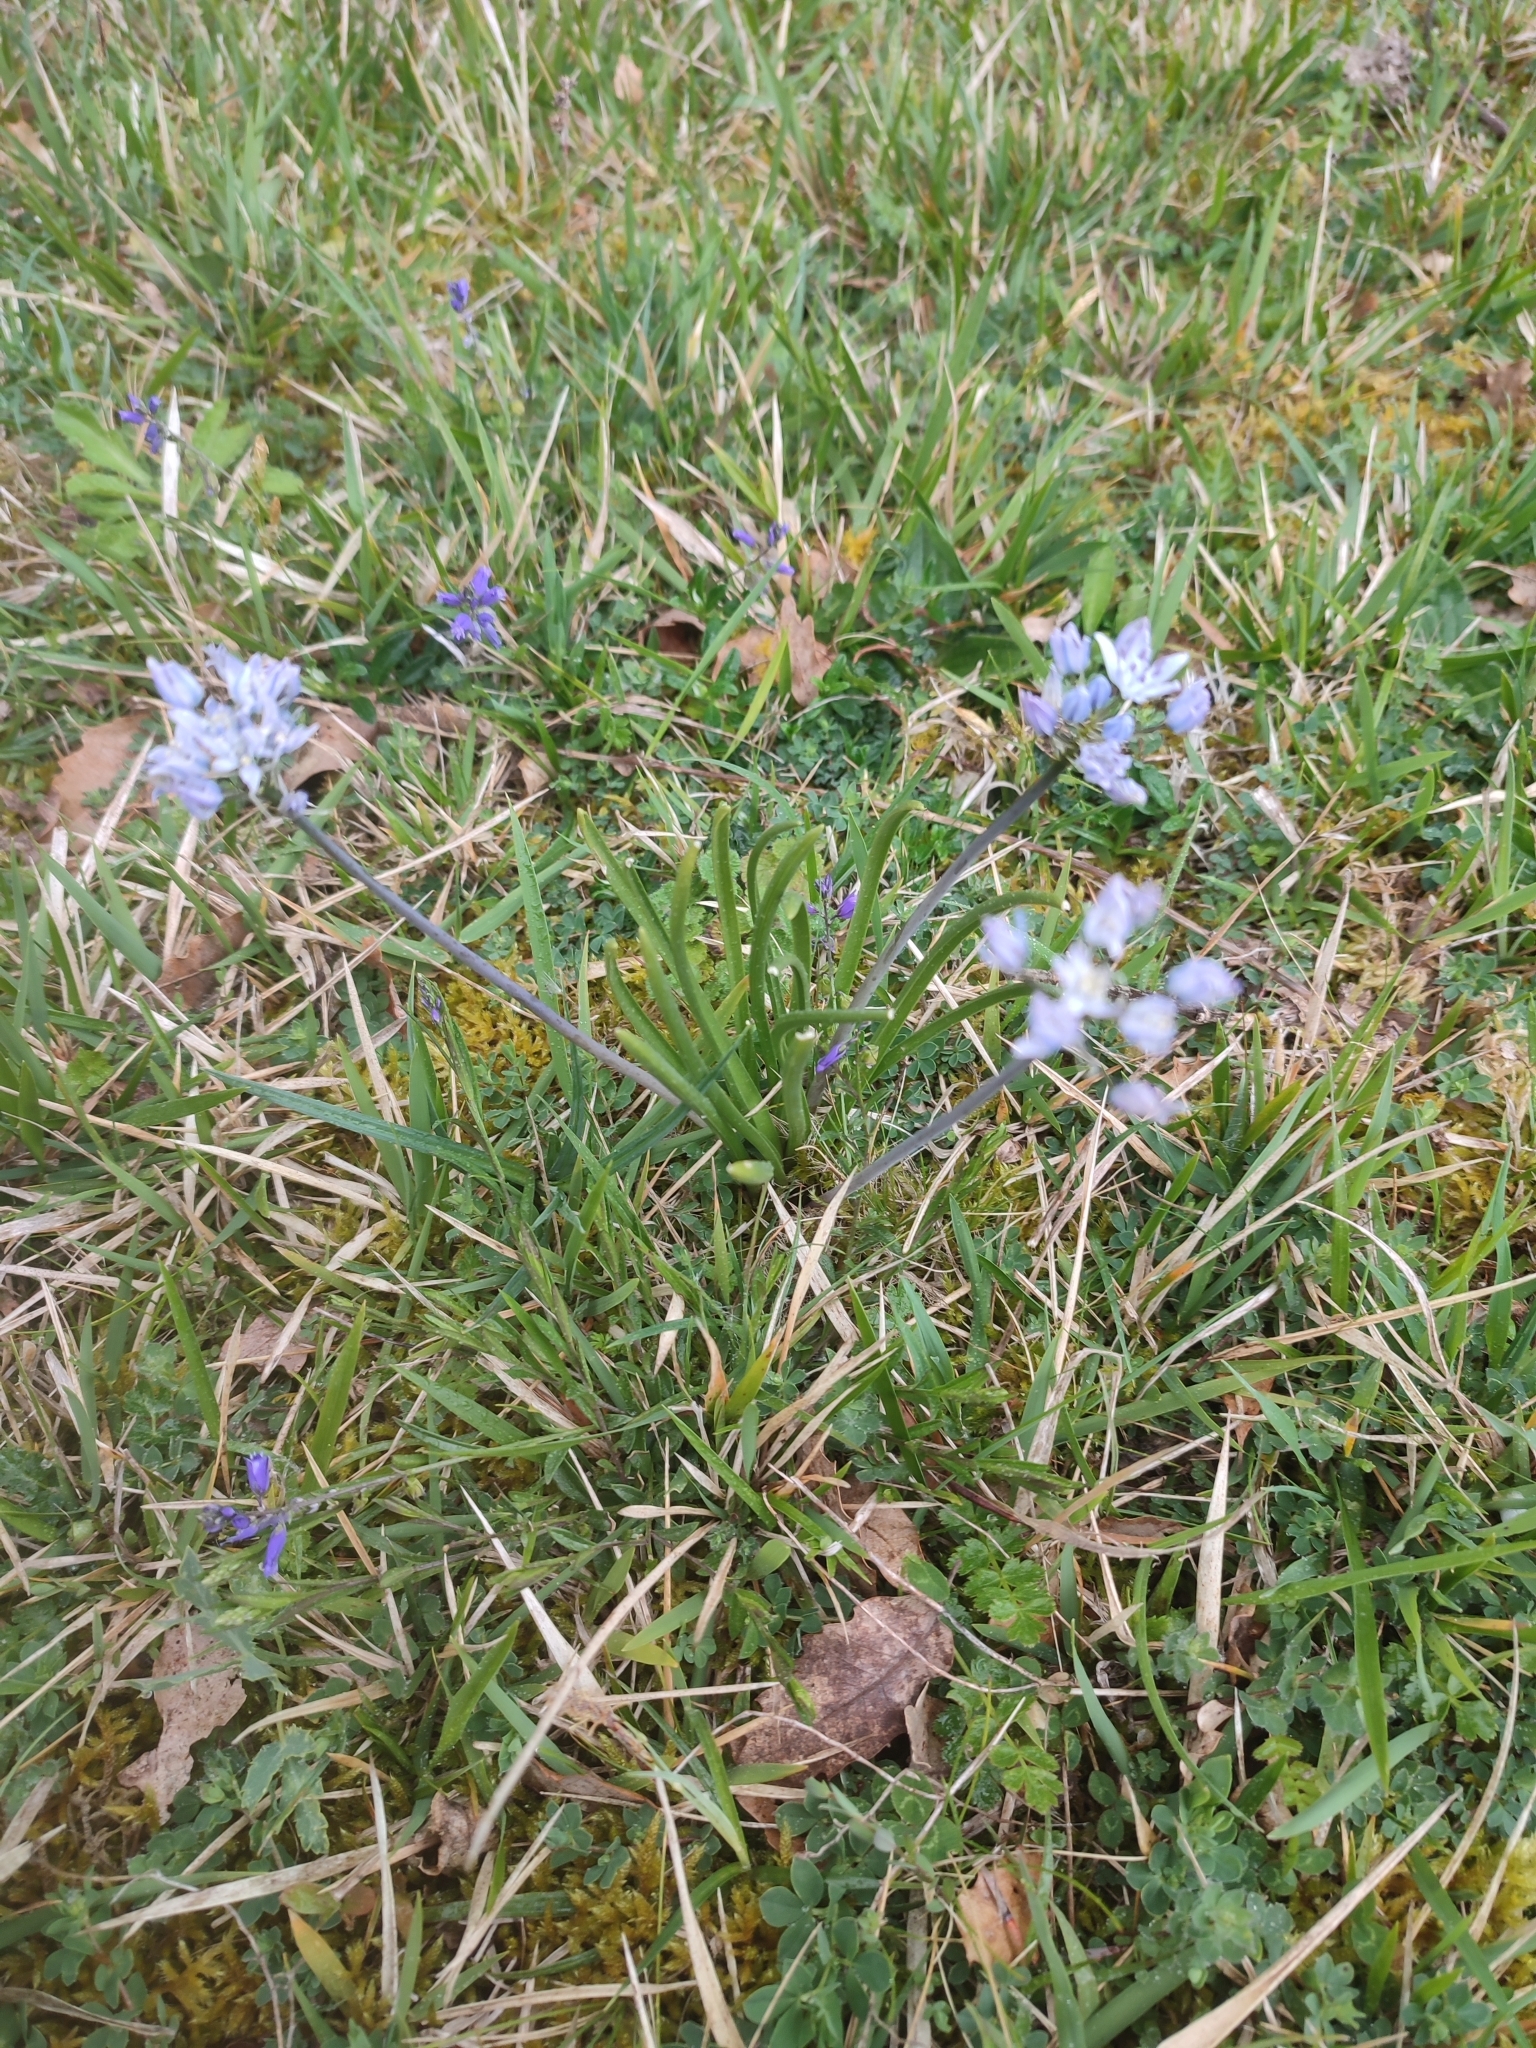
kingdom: Plantae
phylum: Tracheophyta
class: Liliopsida
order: Asparagales
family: Asparagaceae
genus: Scilla
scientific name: Scilla verna
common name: Spring squill
